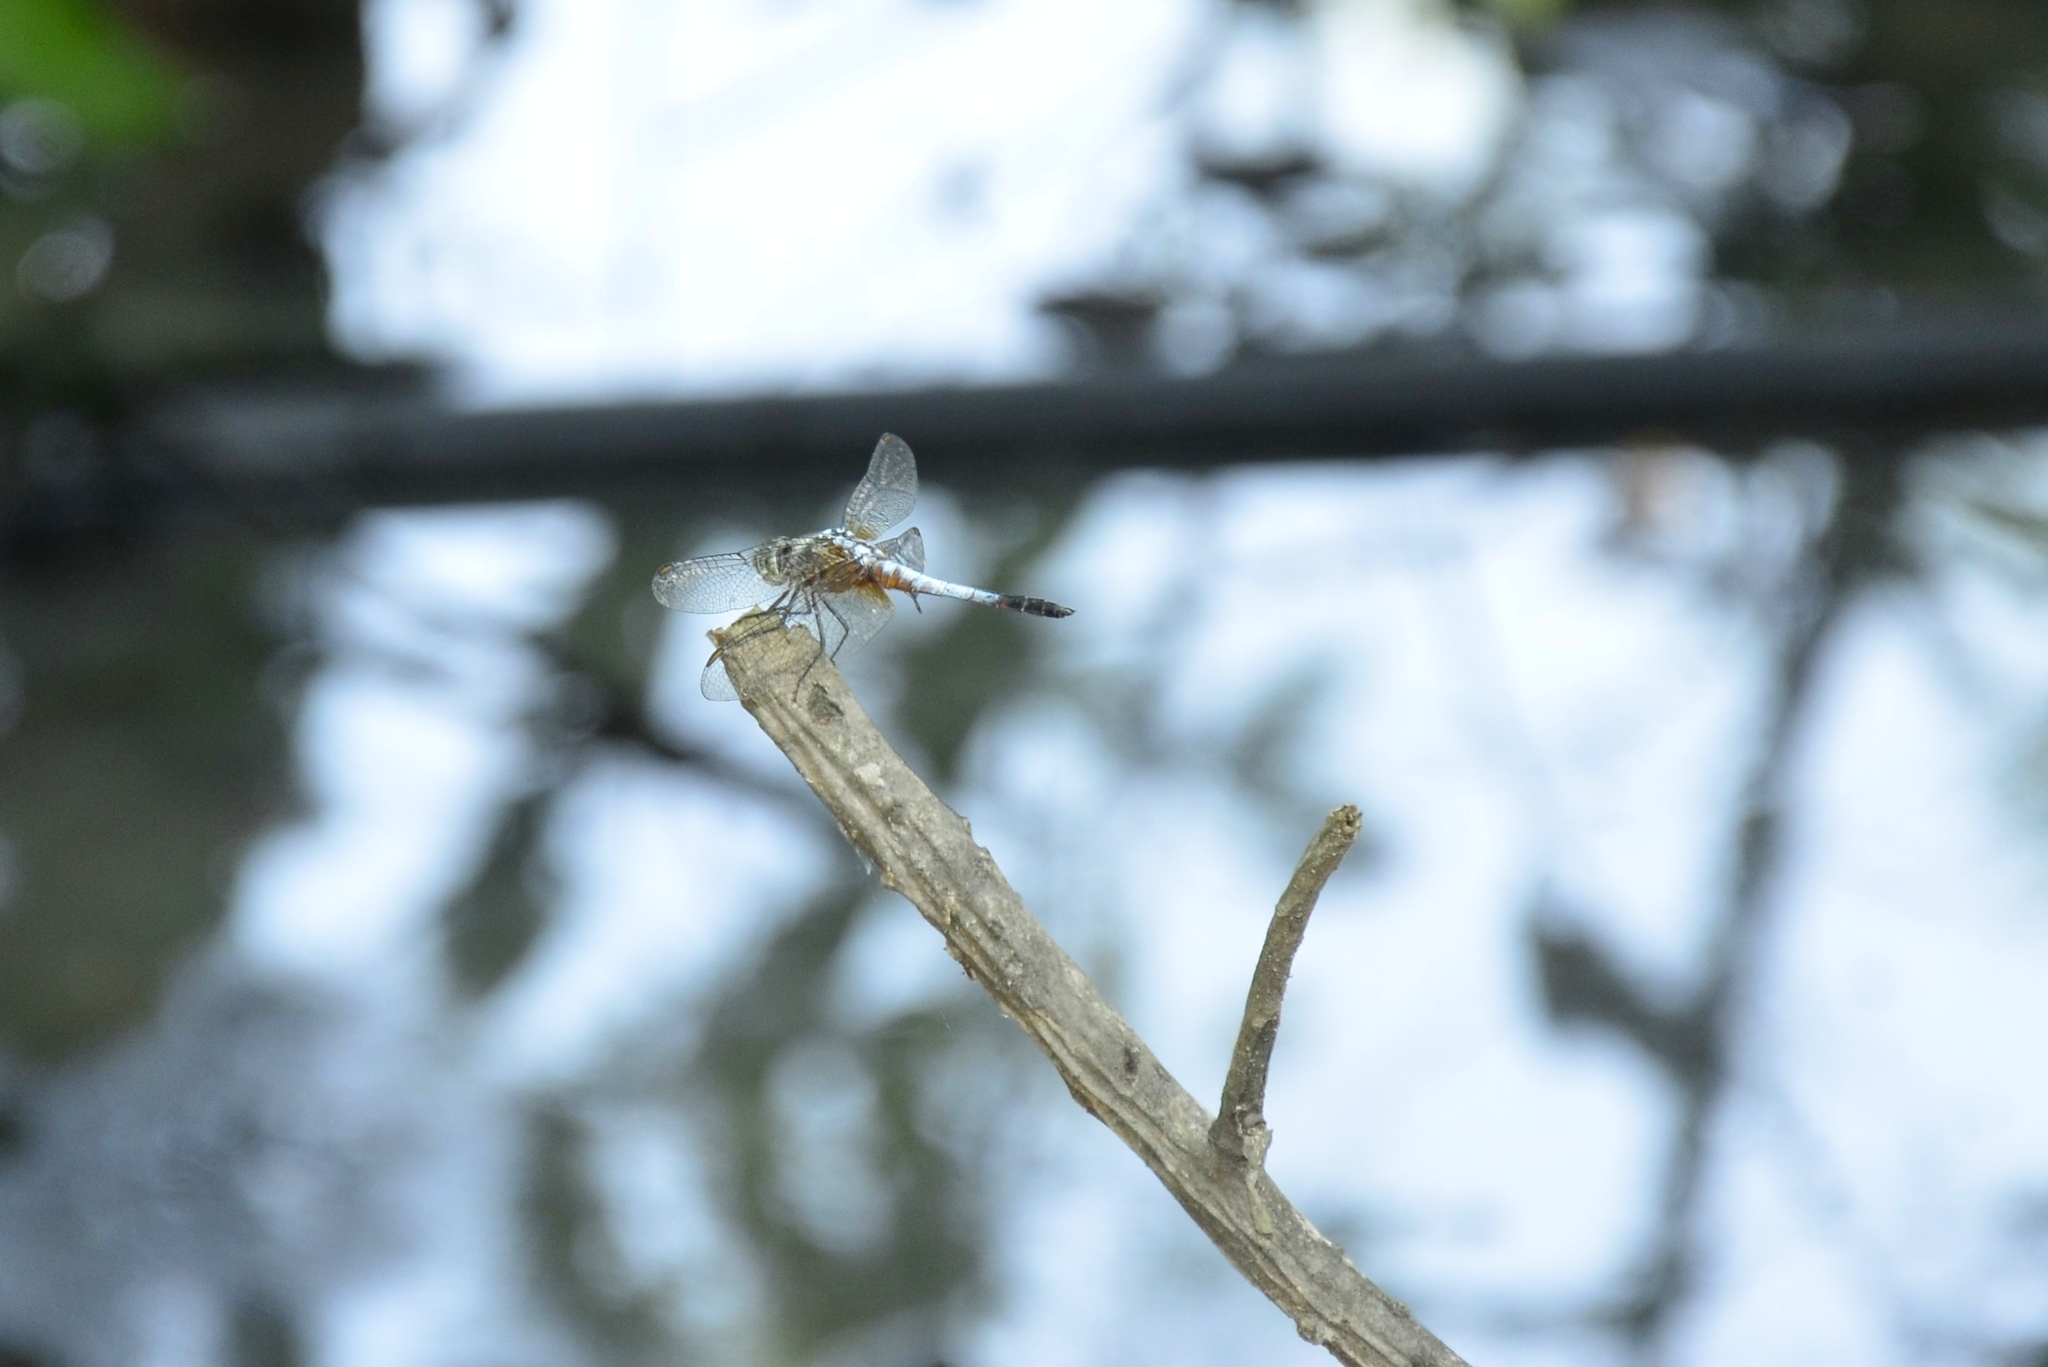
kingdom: Animalia
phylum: Arthropoda
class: Insecta
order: Odonata
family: Libellulidae
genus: Brachydiplax
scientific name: Brachydiplax chalybea
